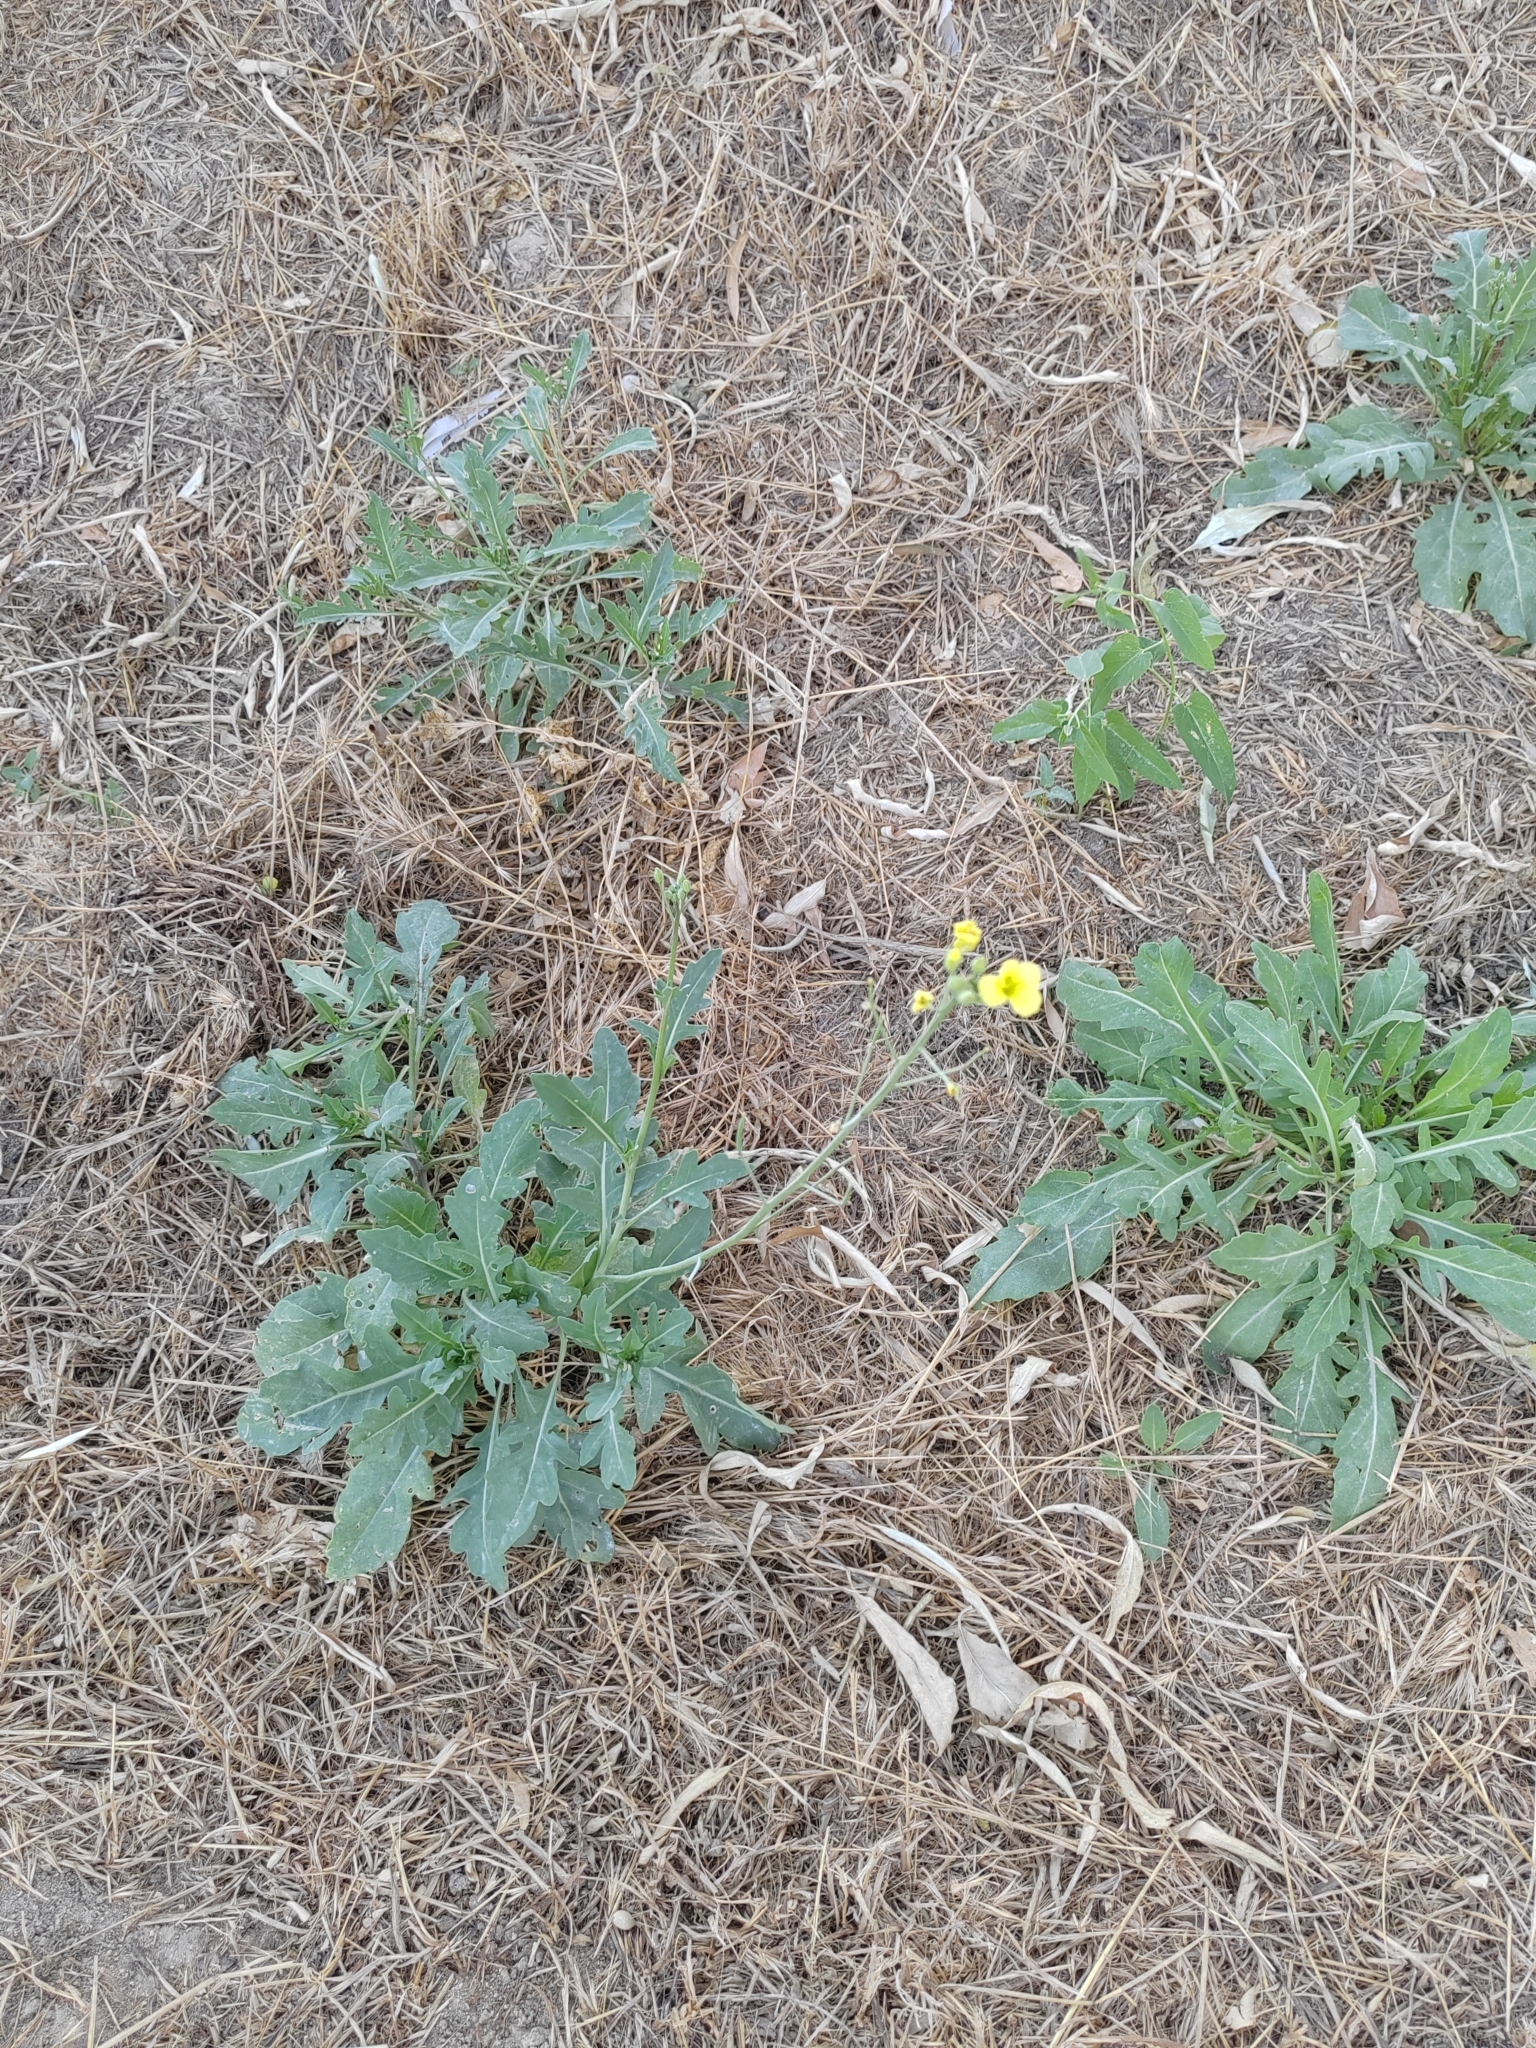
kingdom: Plantae
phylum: Tracheophyta
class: Magnoliopsida
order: Brassicales
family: Brassicaceae
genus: Diplotaxis
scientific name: Diplotaxis tenuifolia
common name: Perennial wall-rocket
